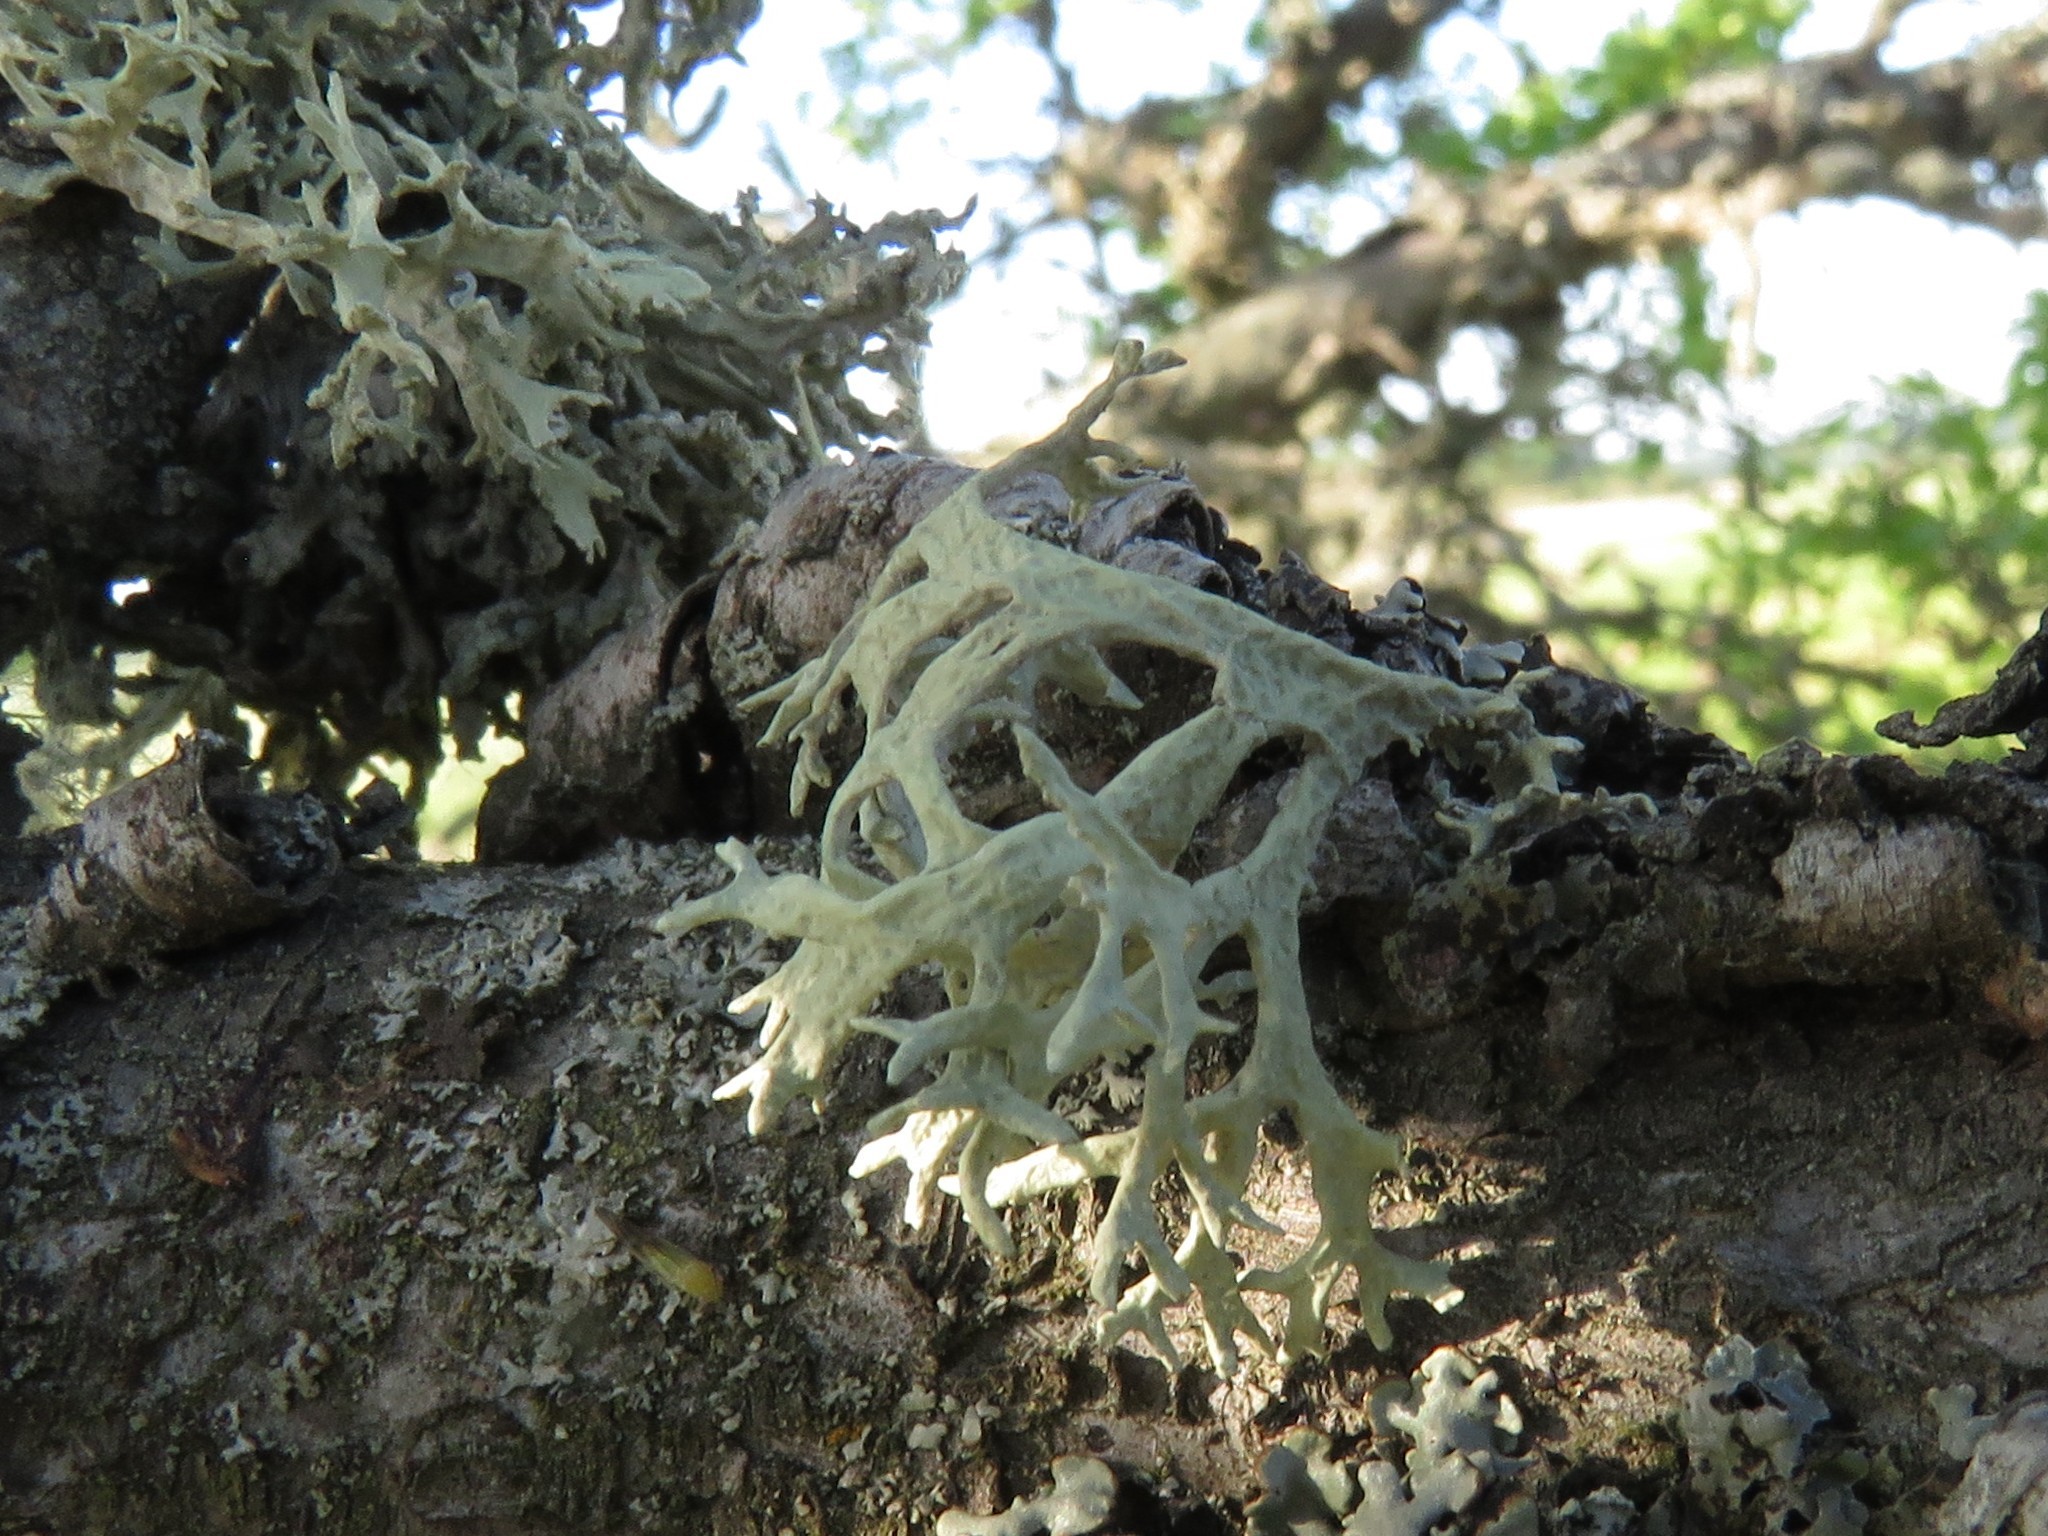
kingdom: Fungi
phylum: Ascomycota
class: Lecanoromycetes
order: Lecanorales
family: Parmeliaceae
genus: Evernia
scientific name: Evernia prunastri
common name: Oak moss
